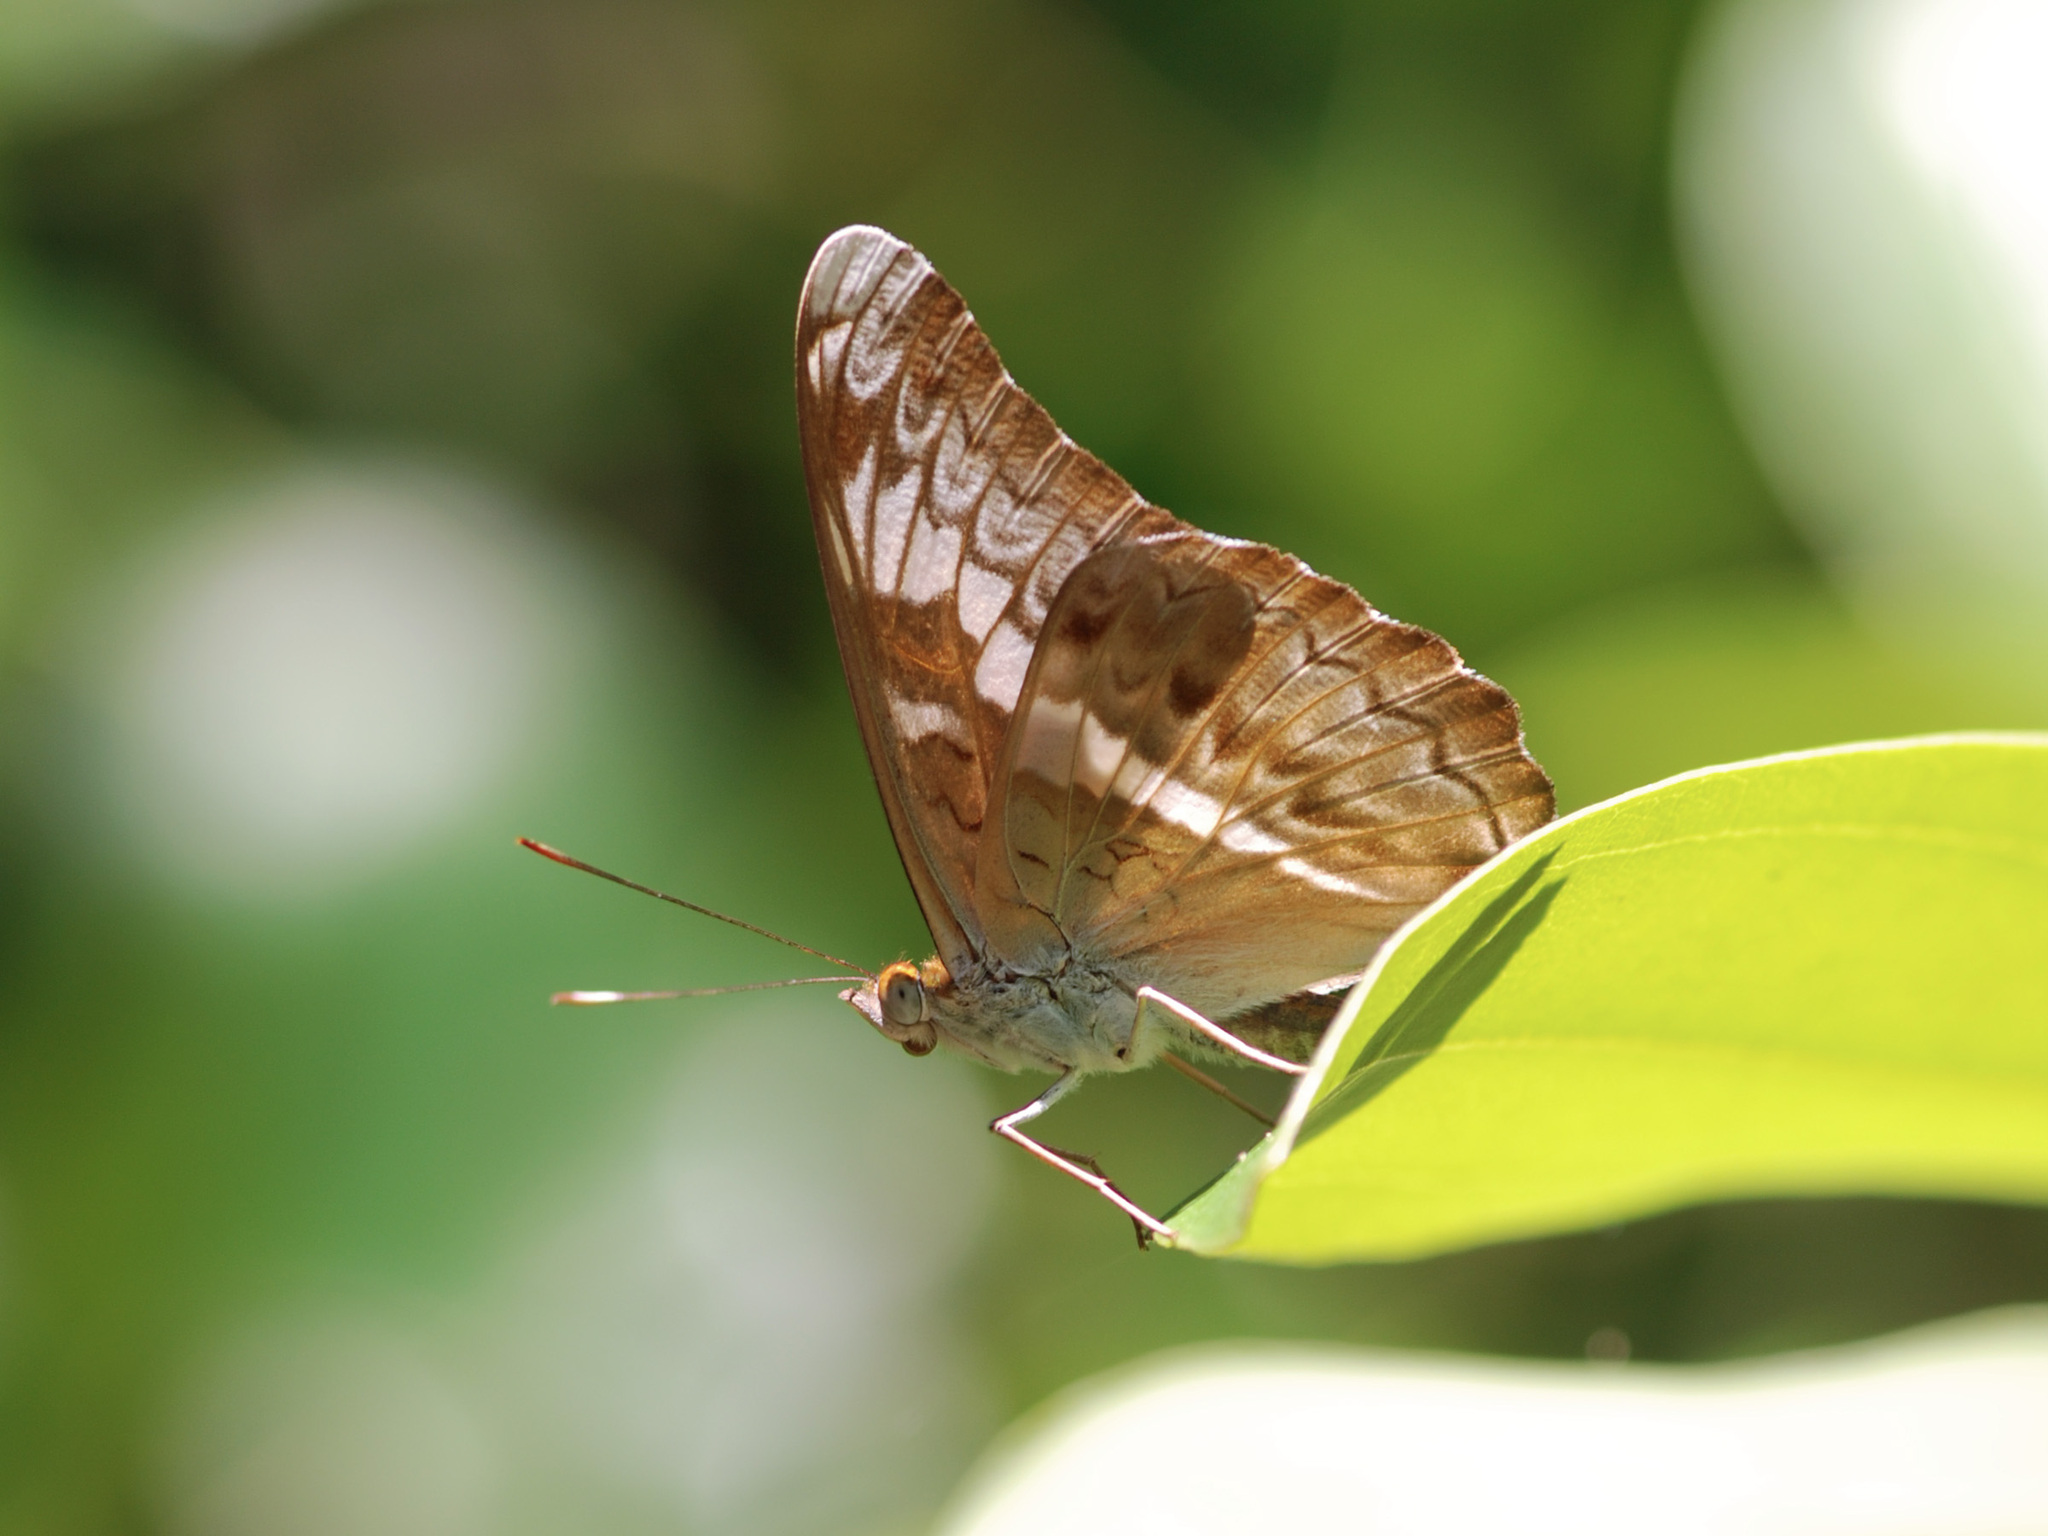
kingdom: Animalia
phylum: Arthropoda
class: Insecta
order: Lepidoptera
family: Nymphalidae
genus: Lebadea
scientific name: Lebadea martha
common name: Knight
